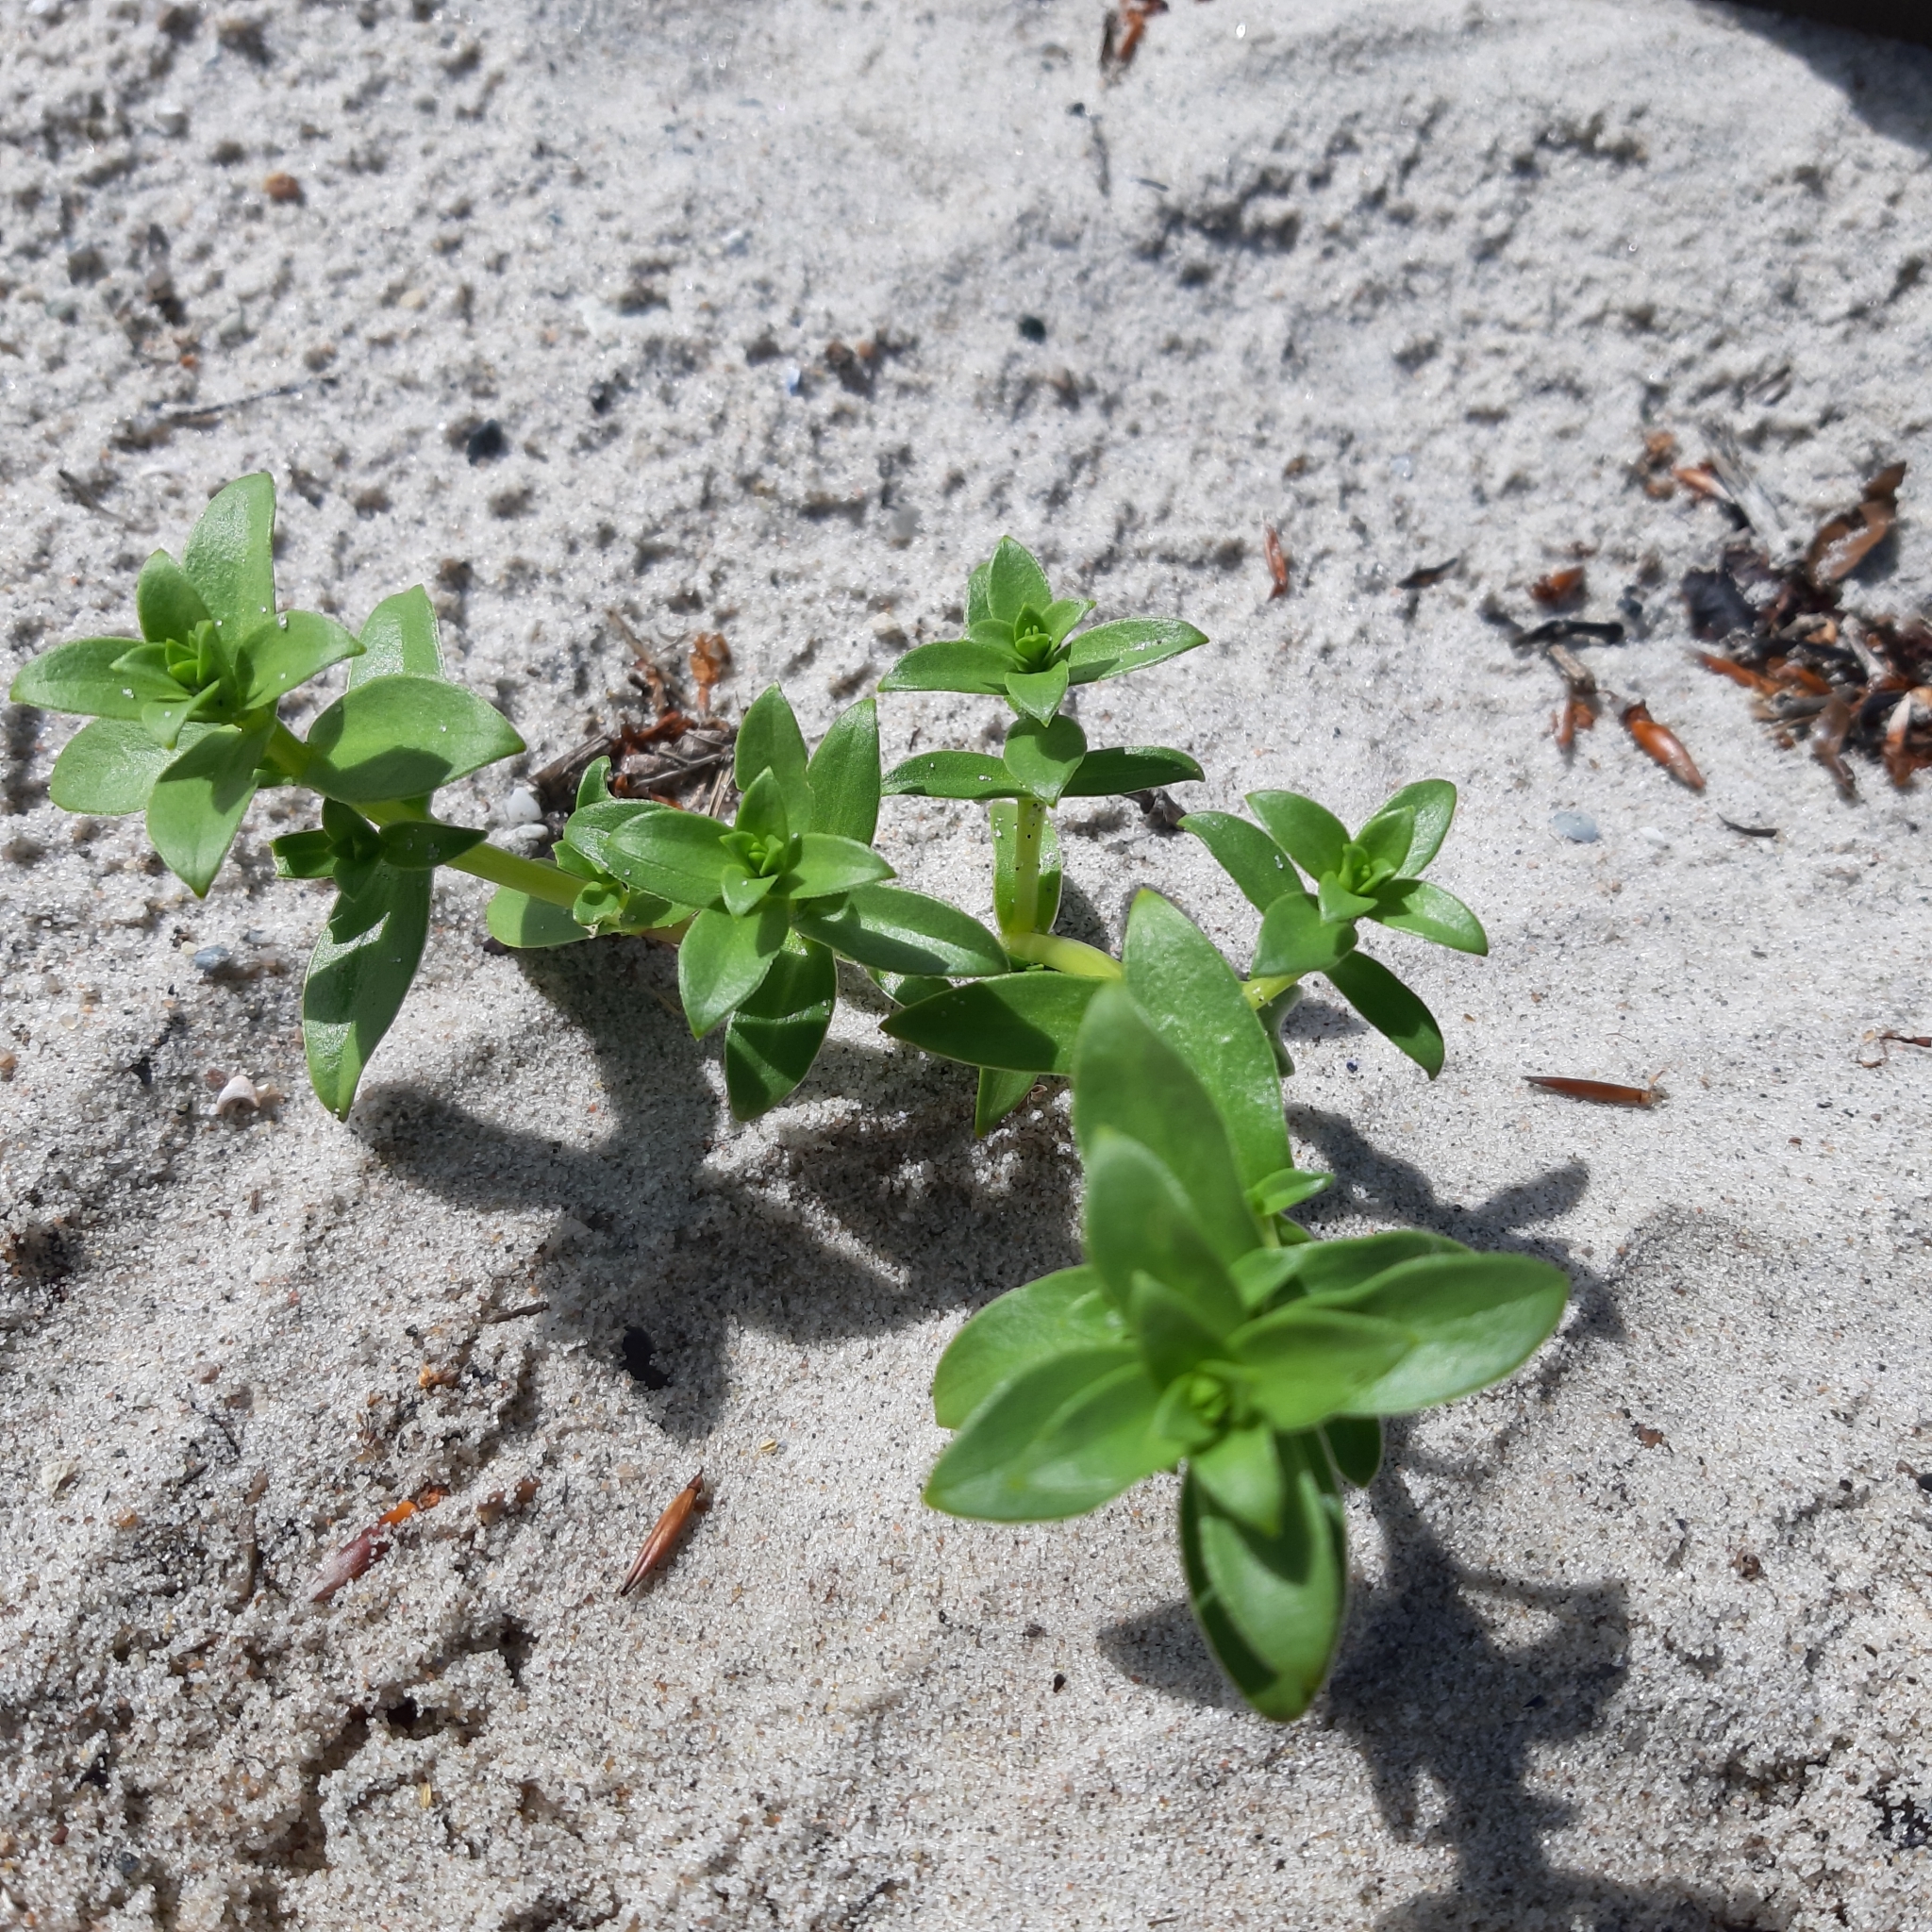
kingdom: Plantae
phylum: Tracheophyta
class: Magnoliopsida
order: Caryophyllales
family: Caryophyllaceae
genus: Honckenya
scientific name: Honckenya peploides
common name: Sea sandwort
